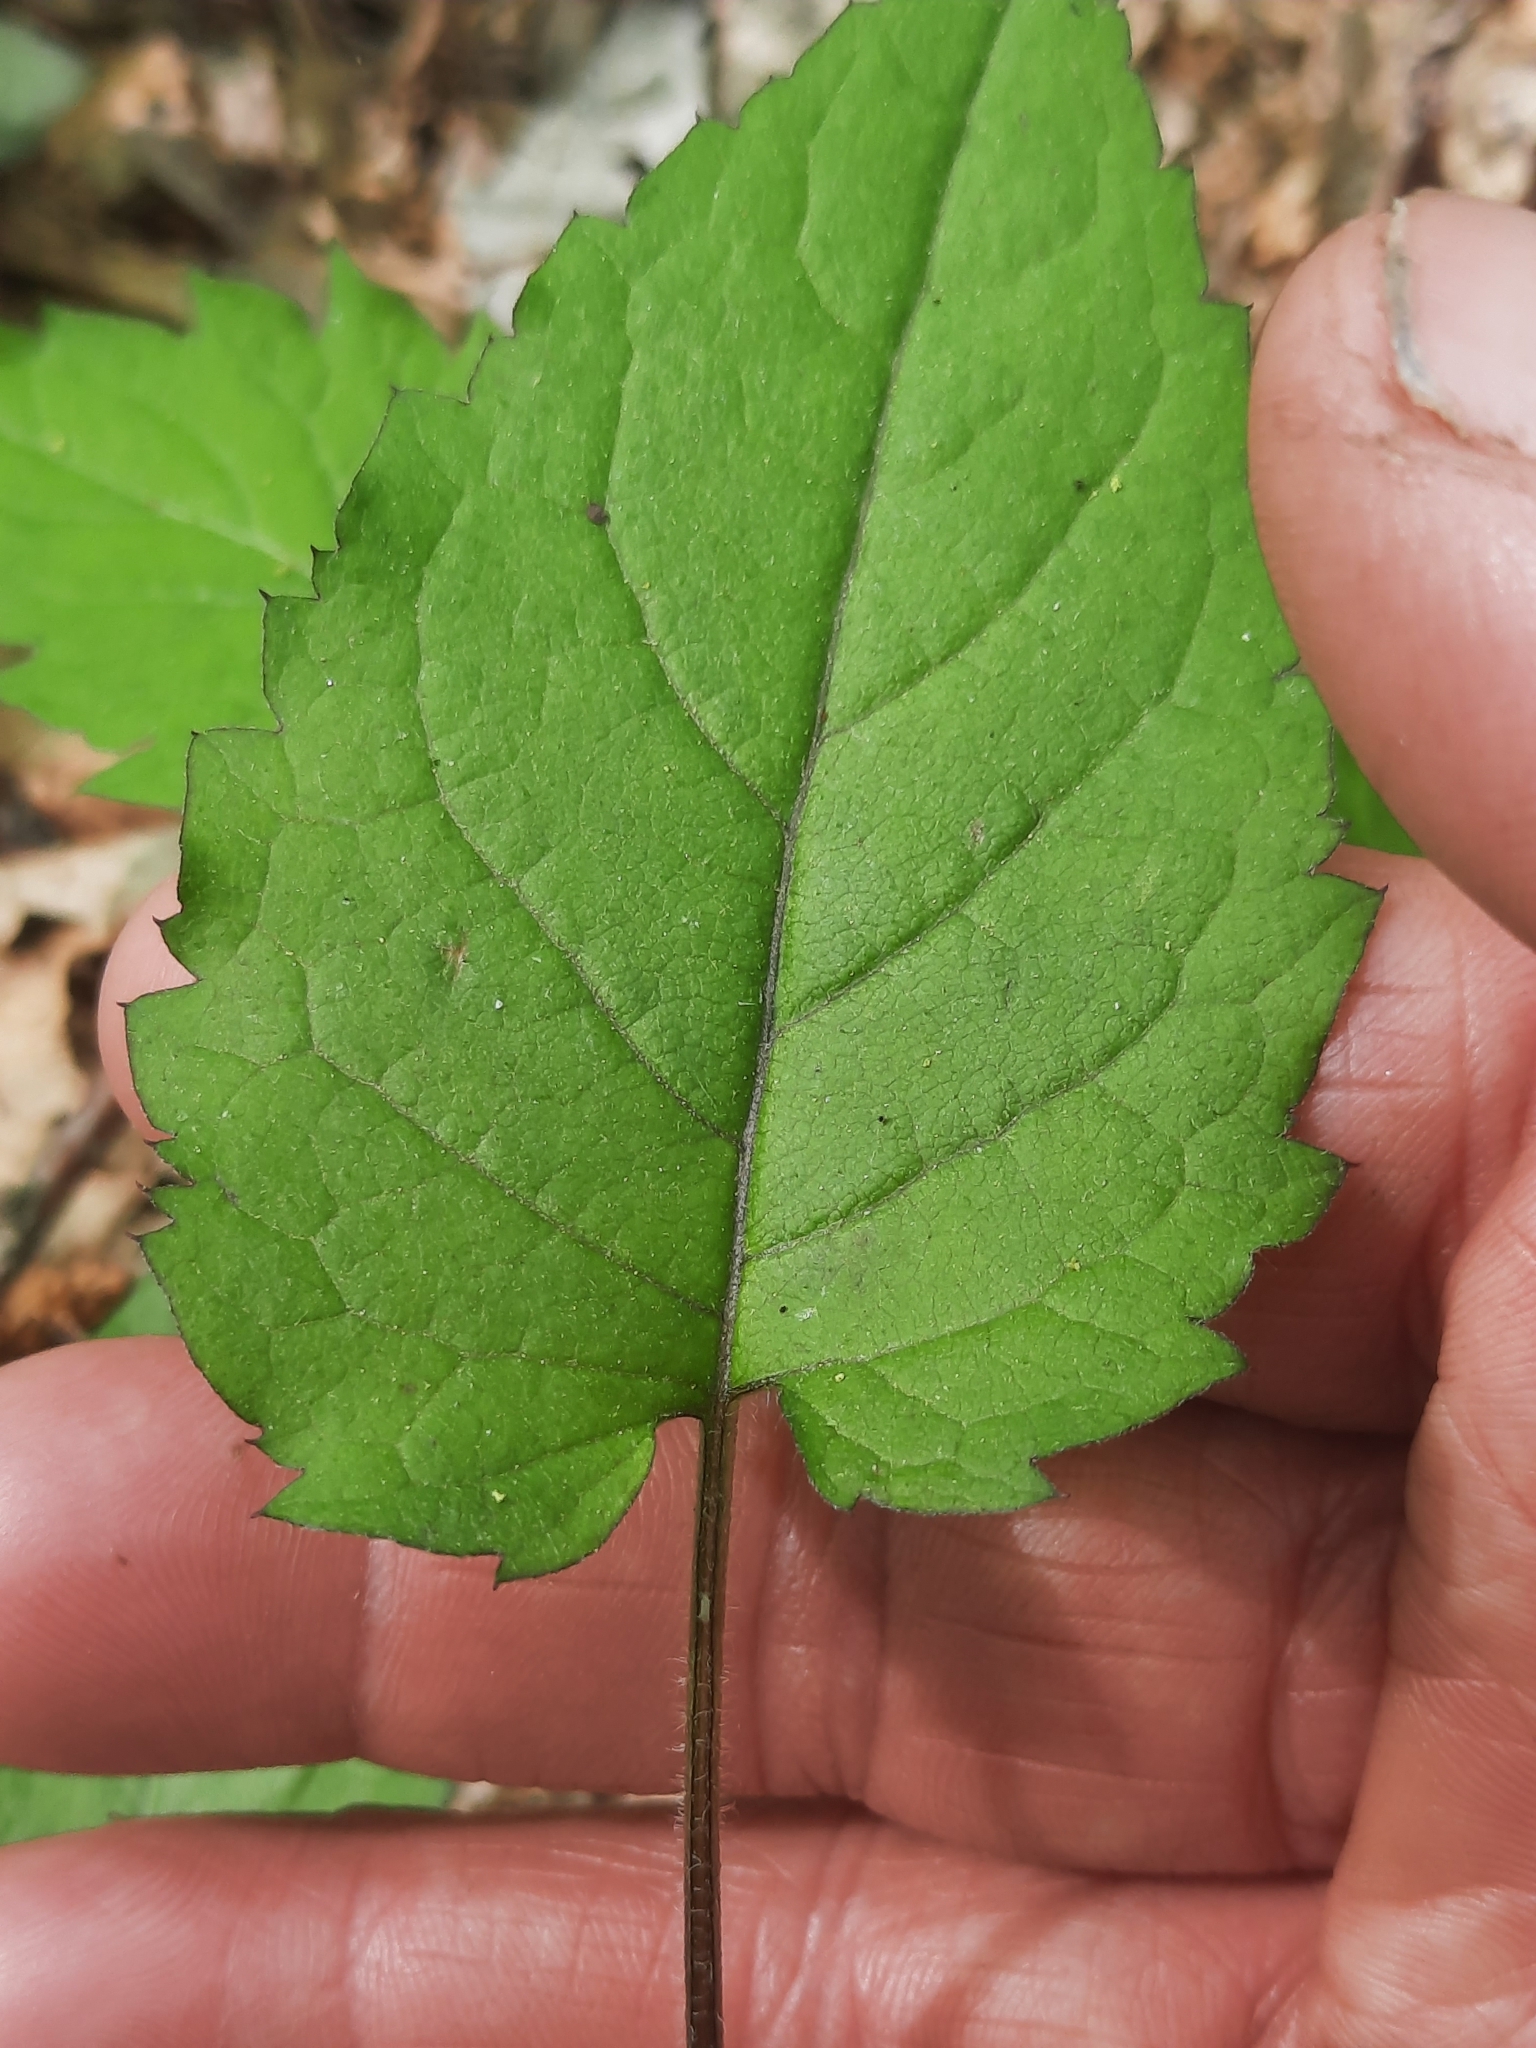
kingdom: Plantae
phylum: Tracheophyta
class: Magnoliopsida
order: Asterales
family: Asteraceae
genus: Eurybia
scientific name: Eurybia divaricata
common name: White wood aster
